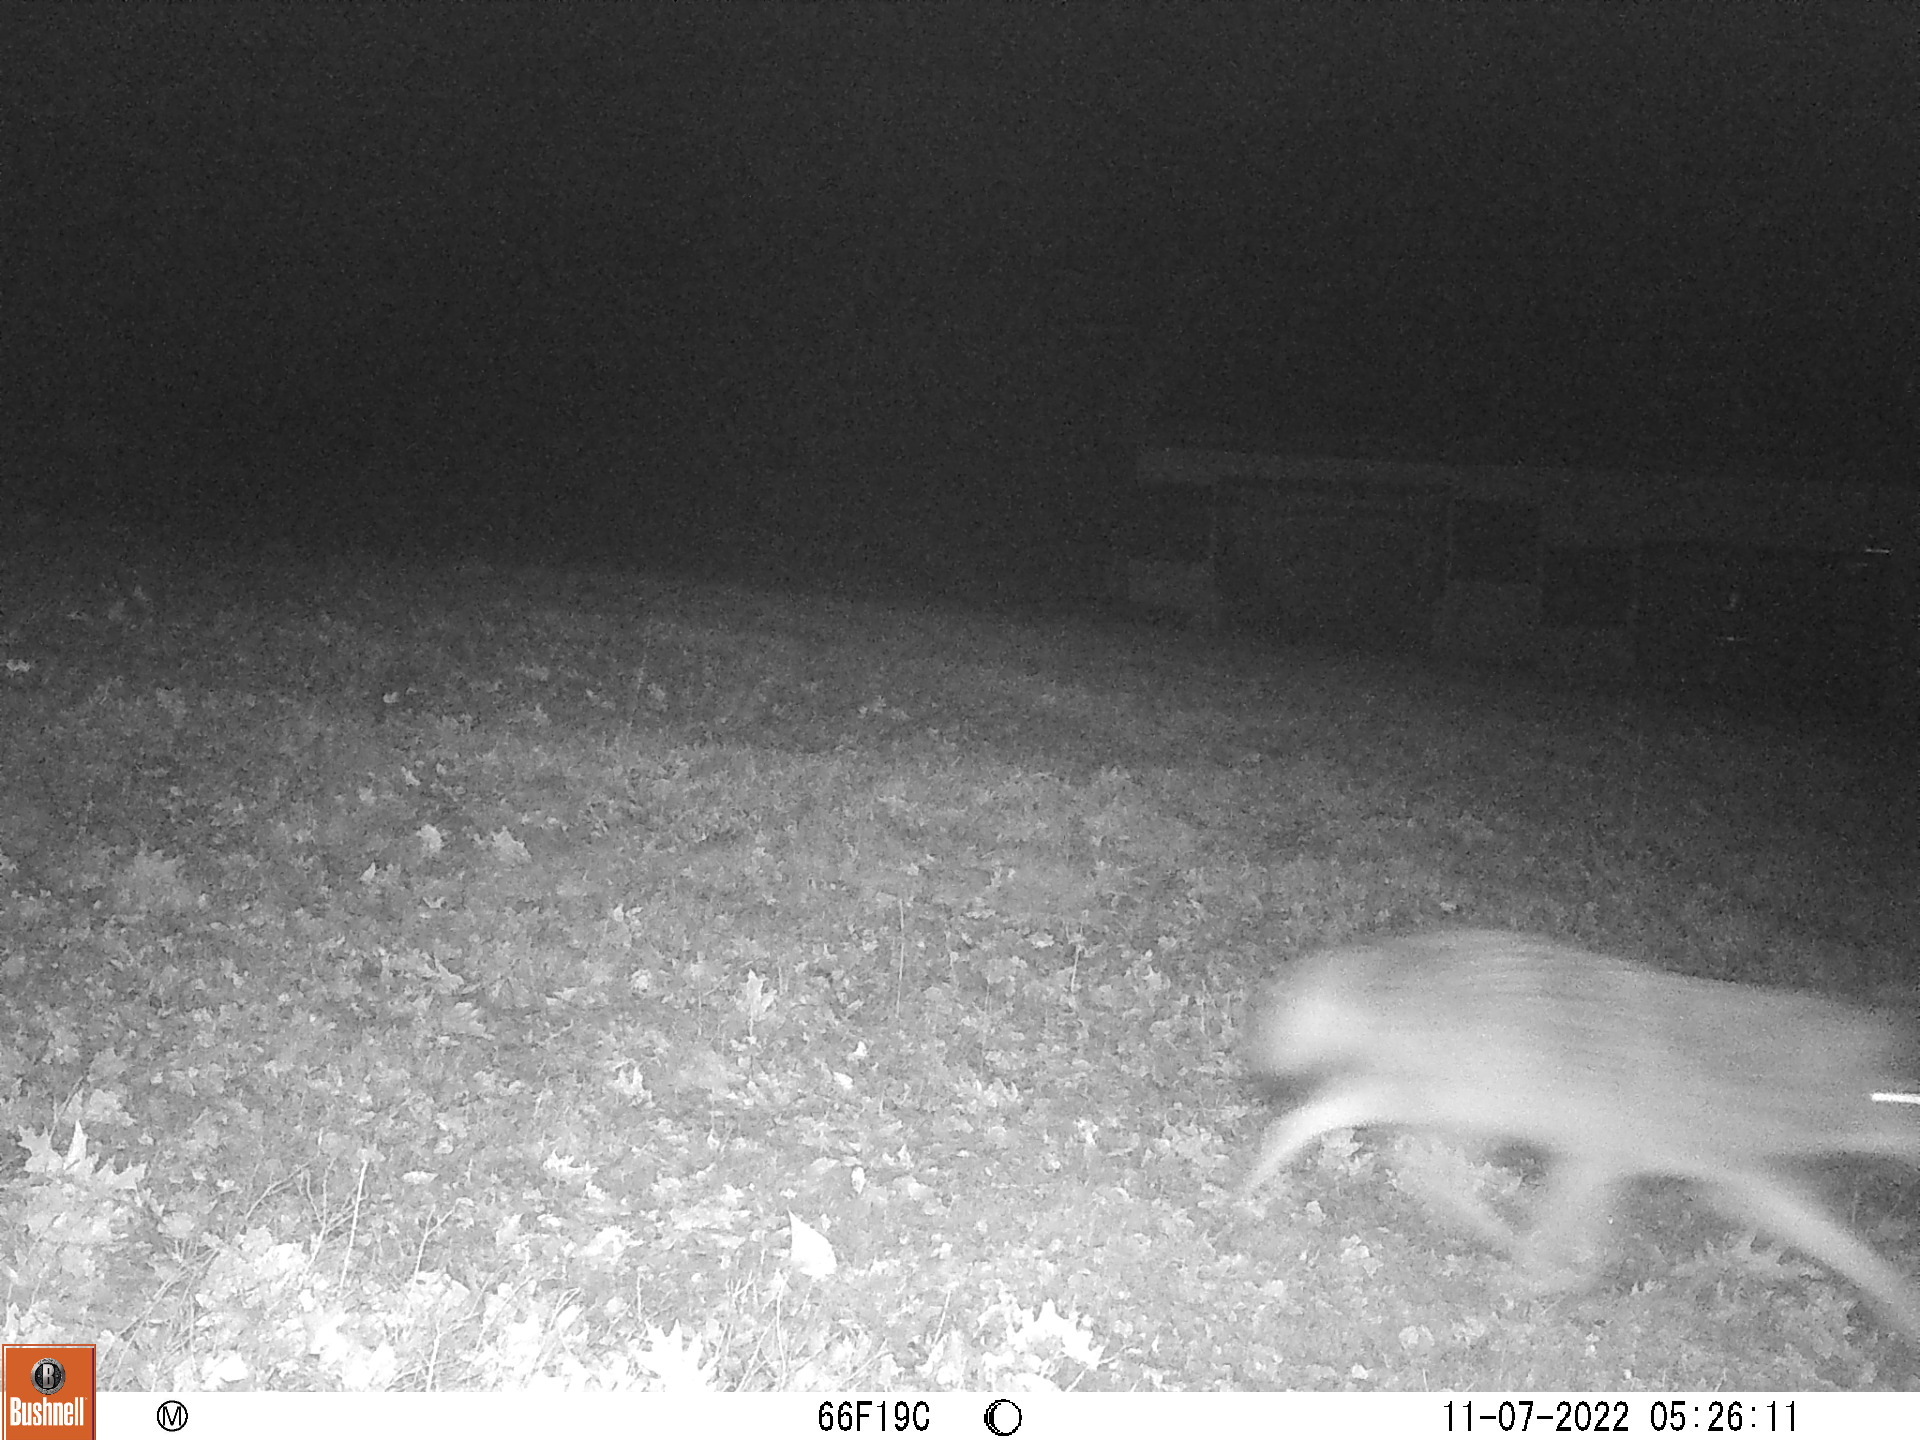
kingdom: Animalia
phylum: Chordata
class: Mammalia
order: Carnivora
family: Canidae
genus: Canis
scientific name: Canis latrans
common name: Coyote
